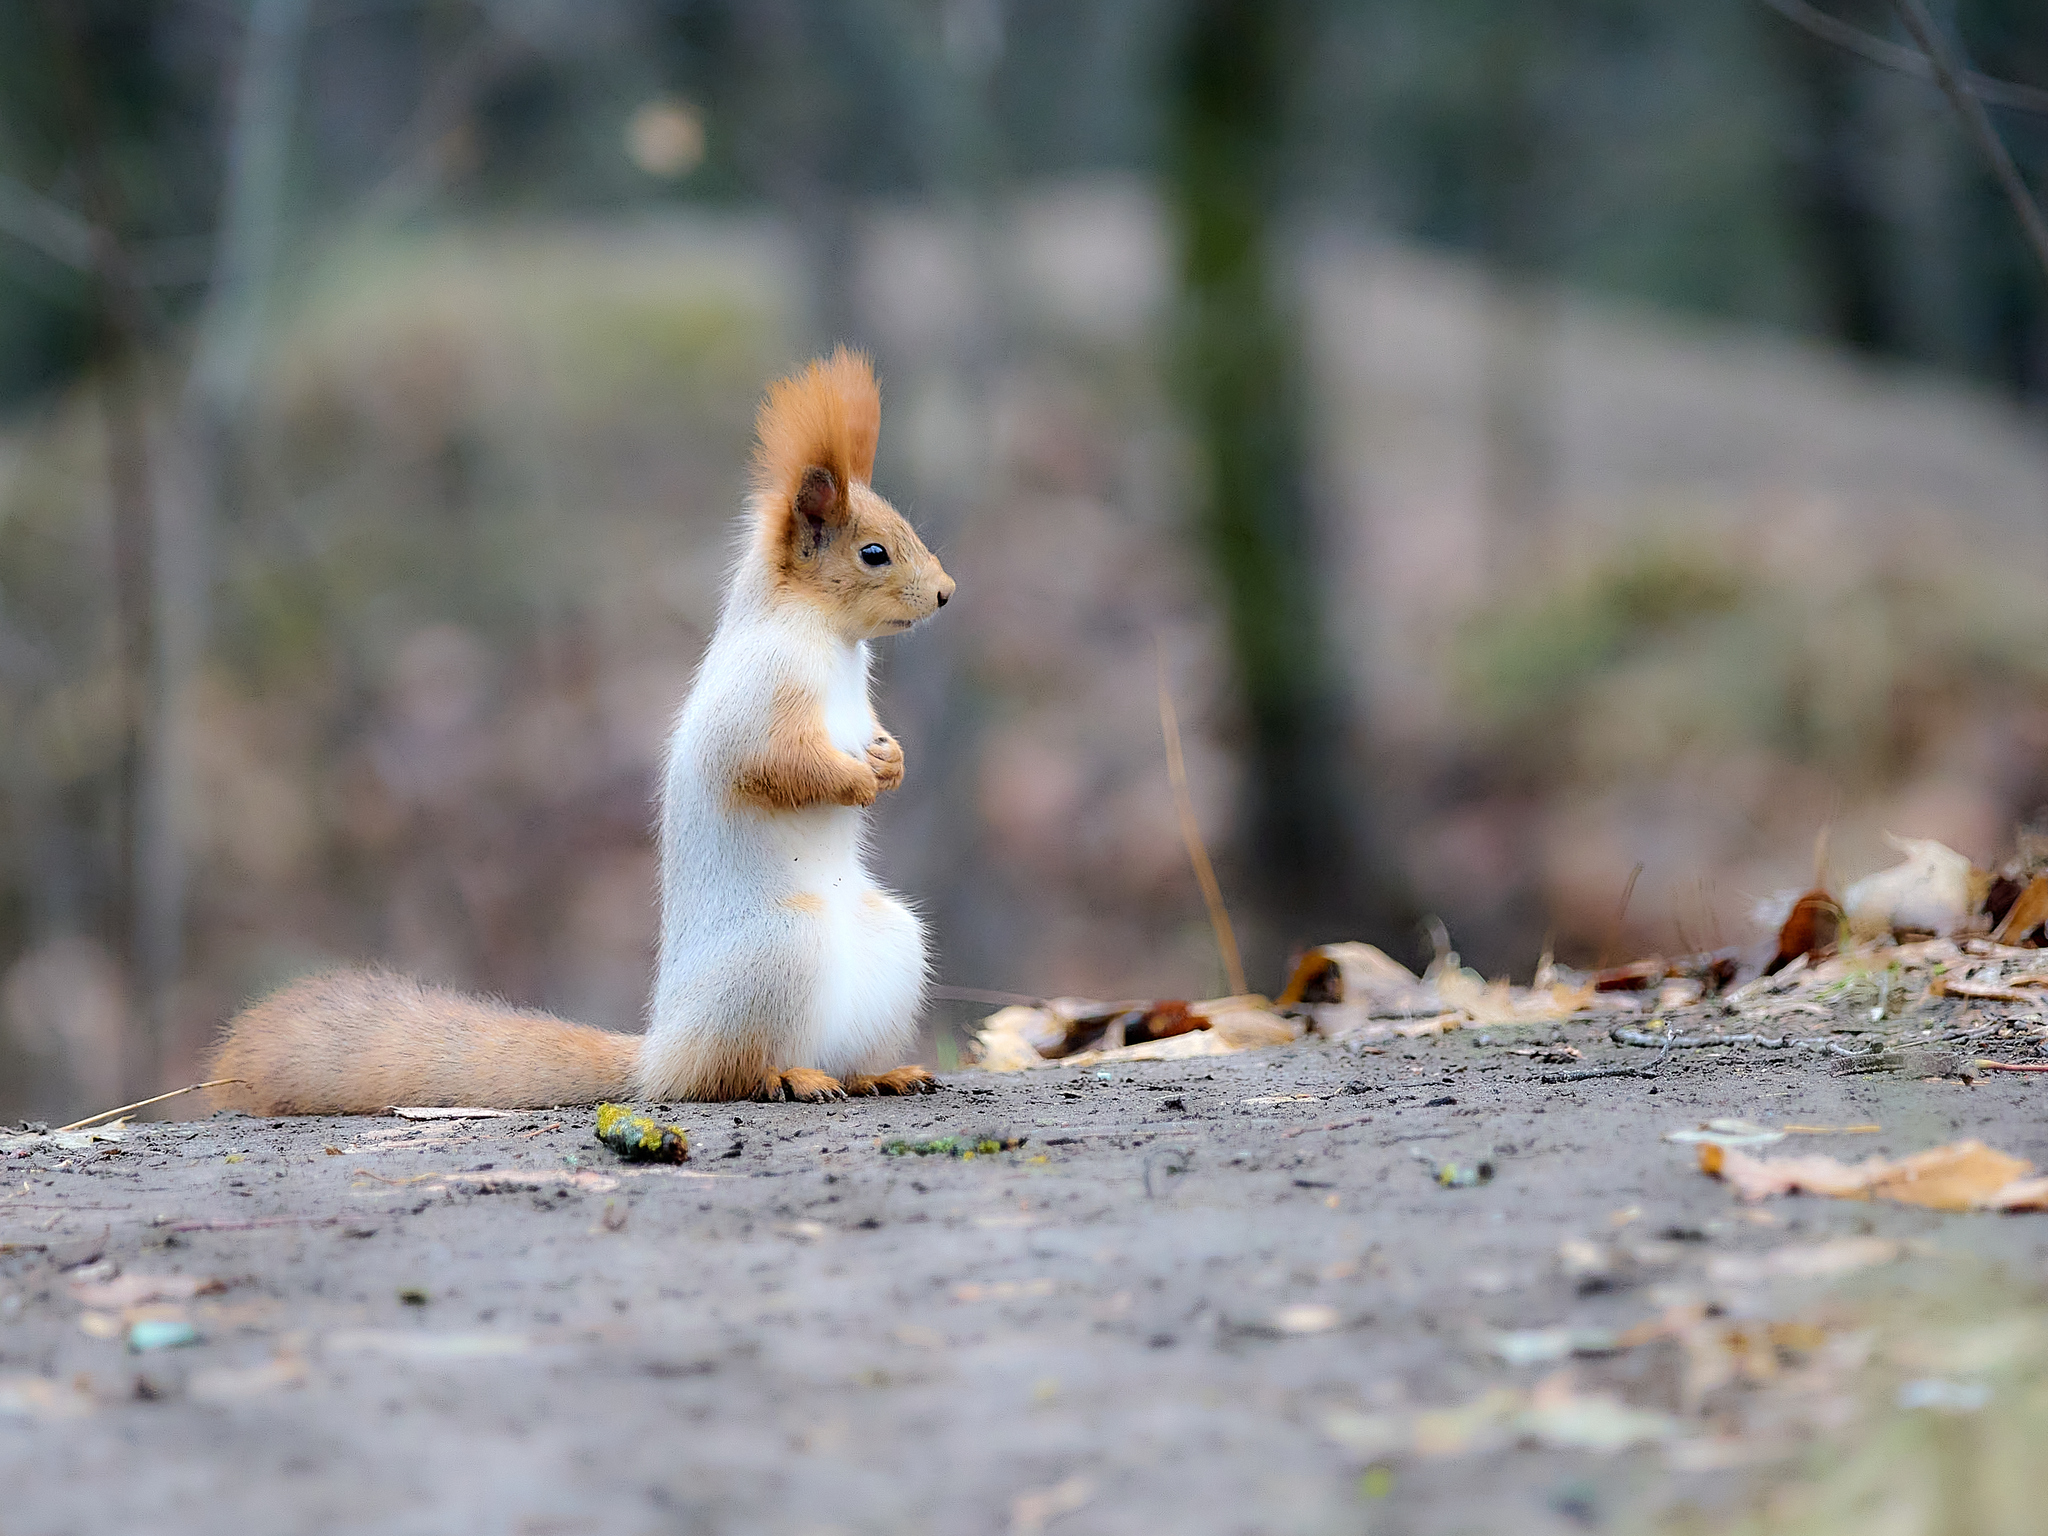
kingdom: Animalia
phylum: Chordata
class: Mammalia
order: Rodentia
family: Sciuridae
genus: Sciurus
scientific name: Sciurus vulgaris
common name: Eurasian red squirrel
